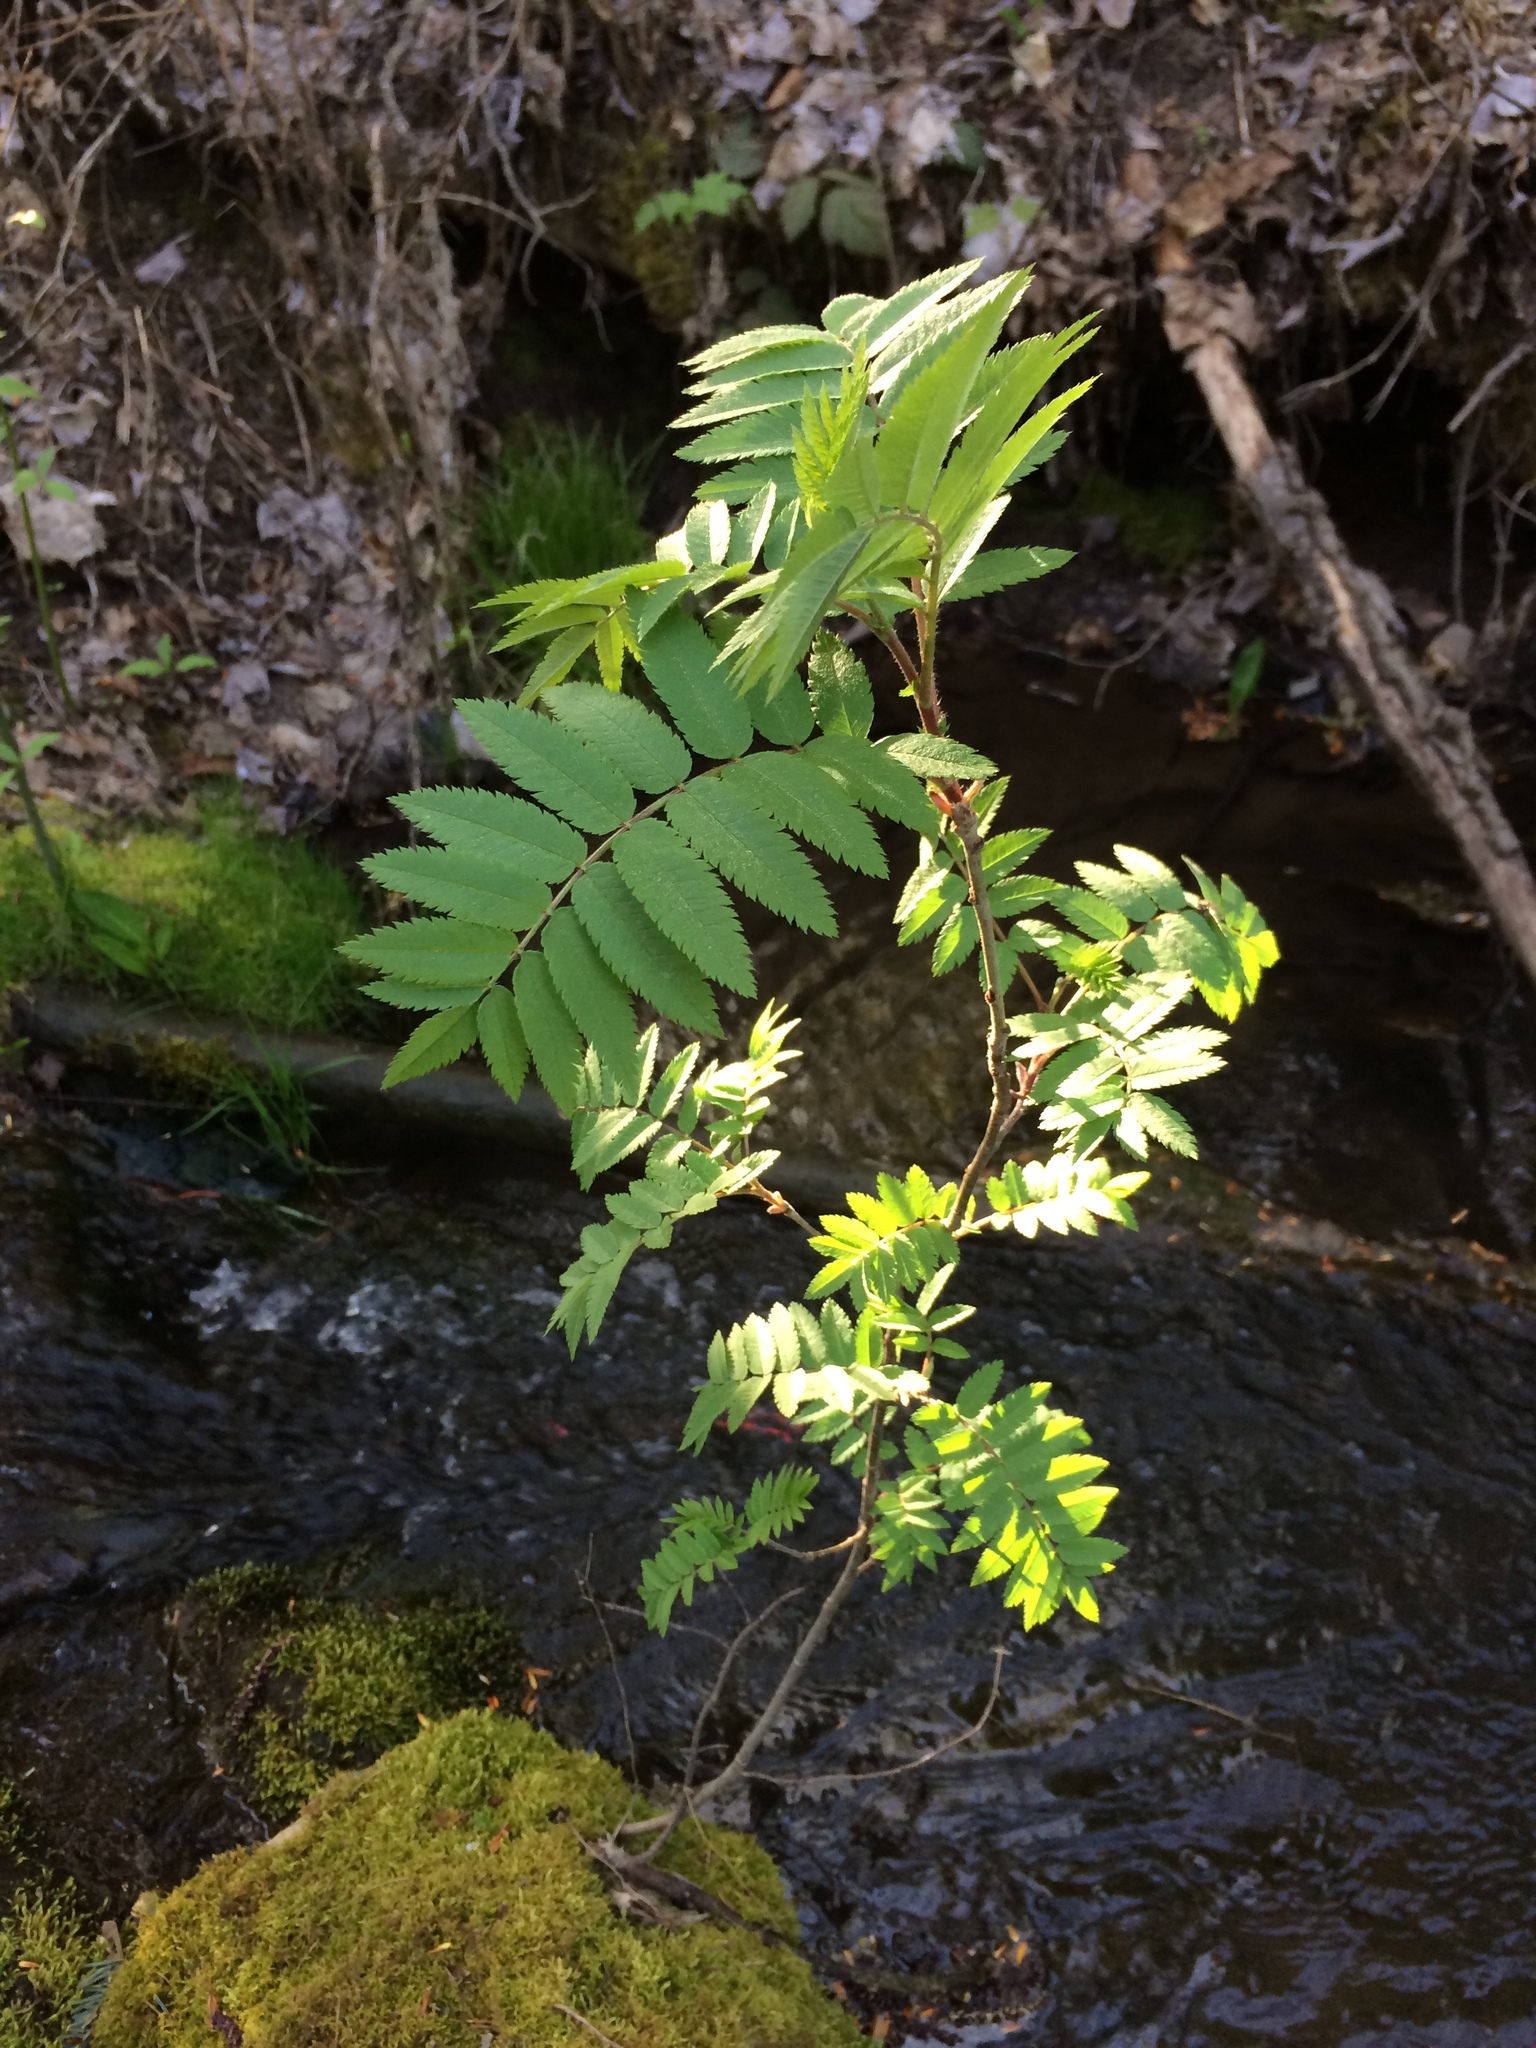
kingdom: Plantae
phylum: Tracheophyta
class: Magnoliopsida
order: Rosales
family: Rosaceae
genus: Sorbus
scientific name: Sorbus aucuparia
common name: Rowan
